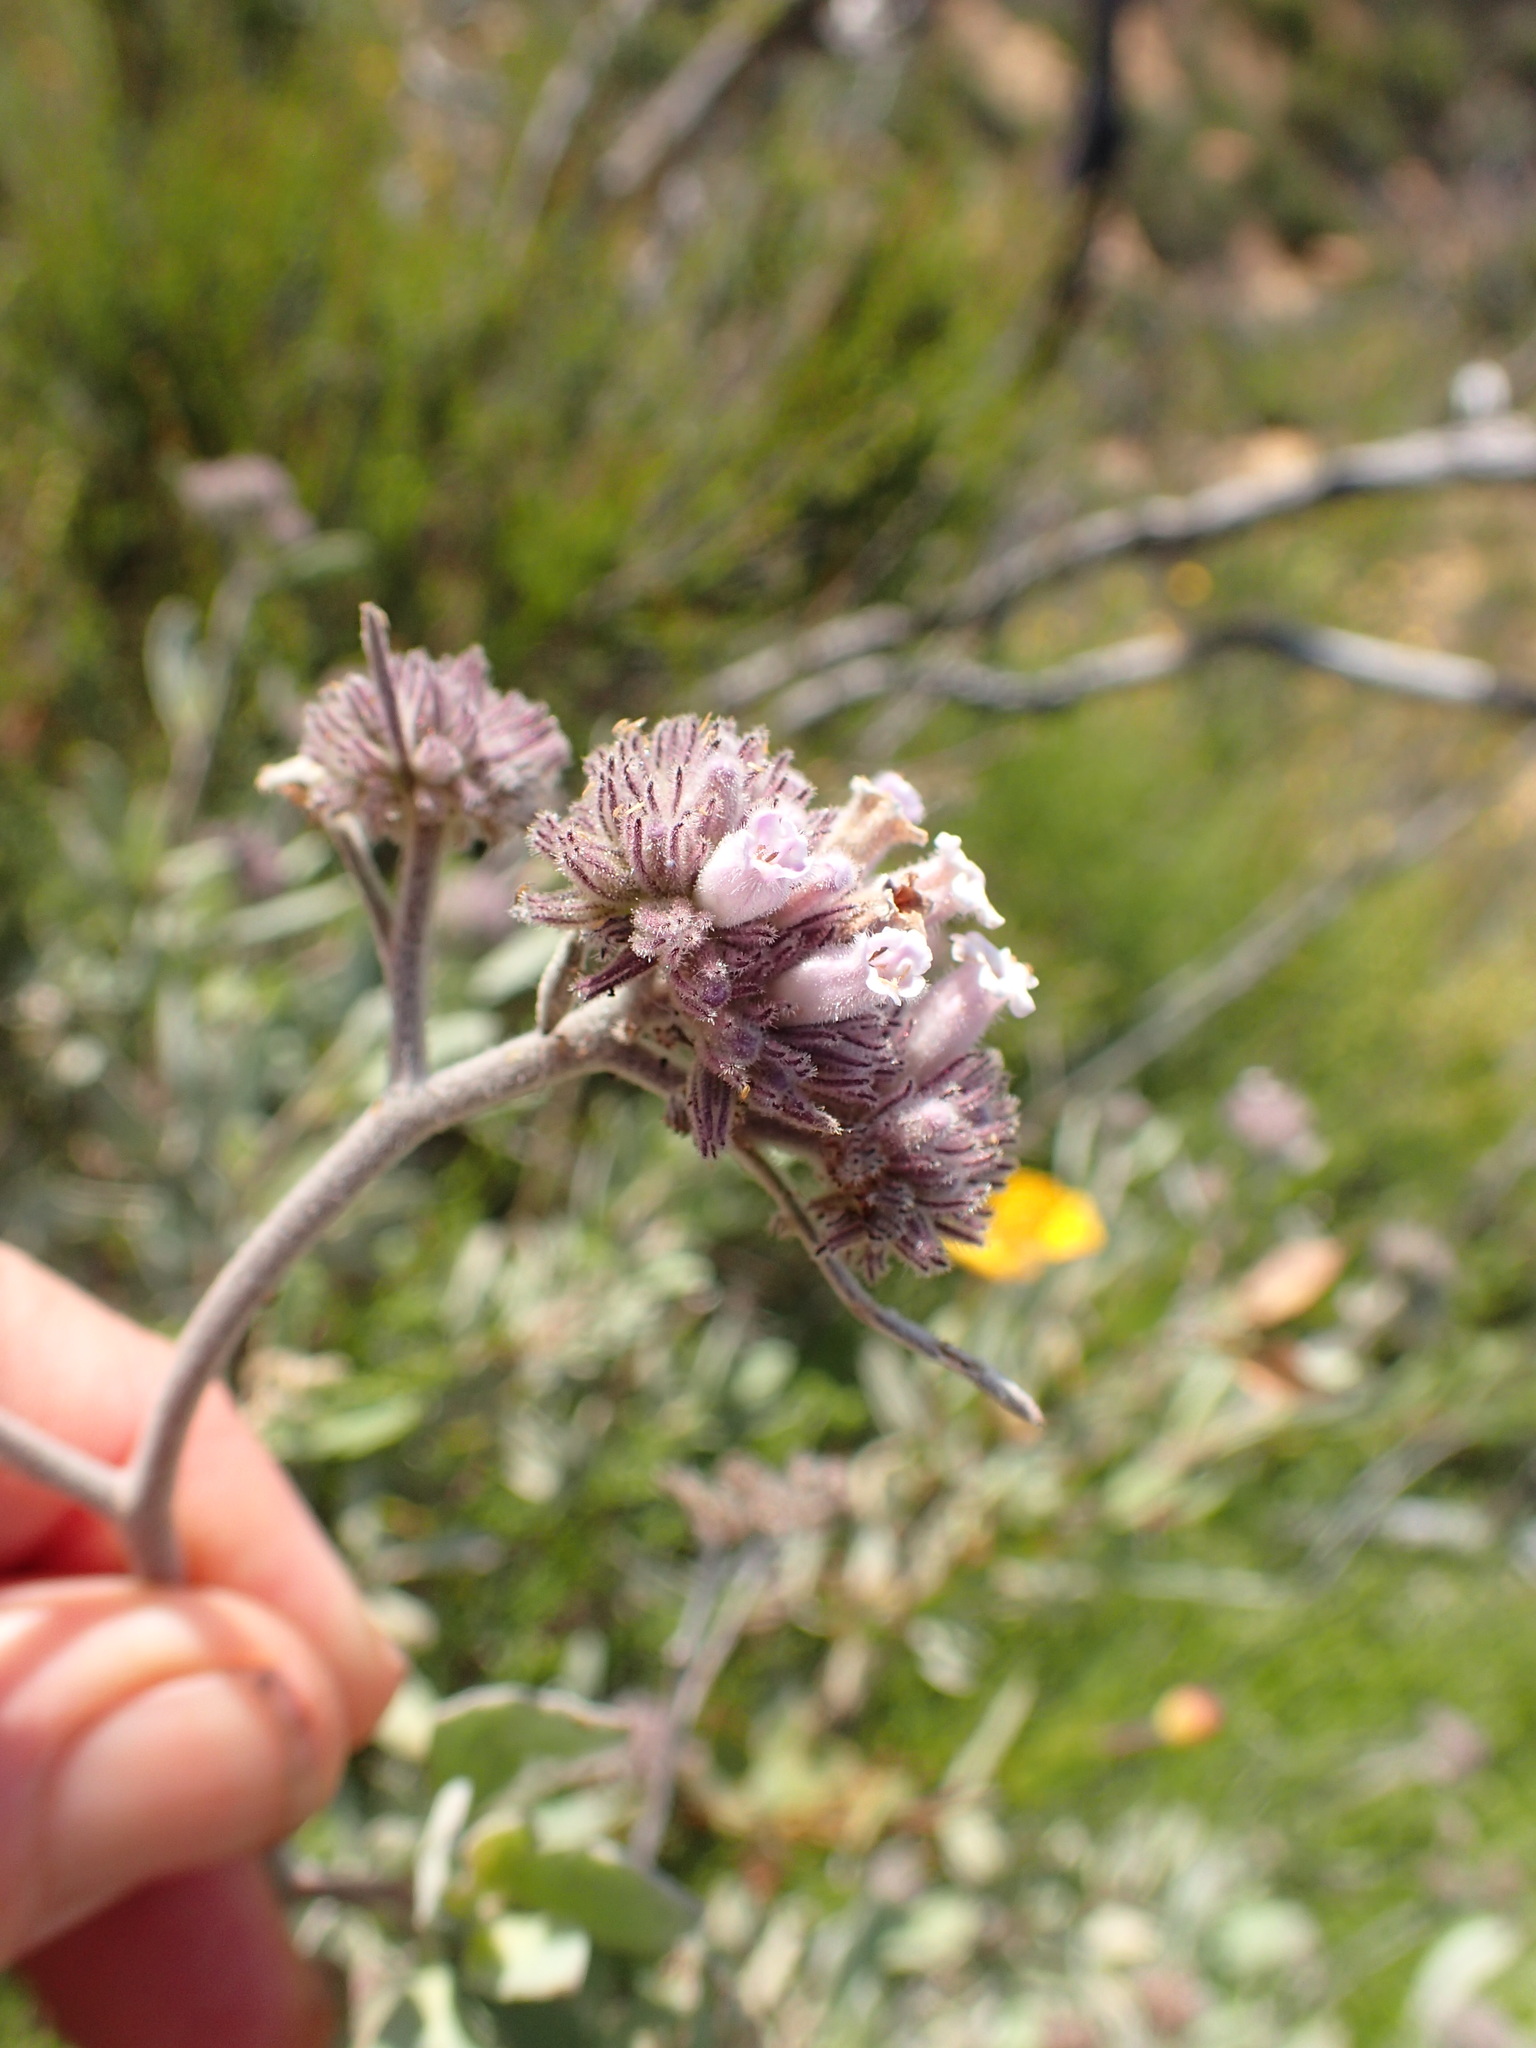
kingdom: Plantae
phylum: Tracheophyta
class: Magnoliopsida
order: Boraginales
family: Namaceae
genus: Eriodictyon
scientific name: Eriodictyon traskiae
